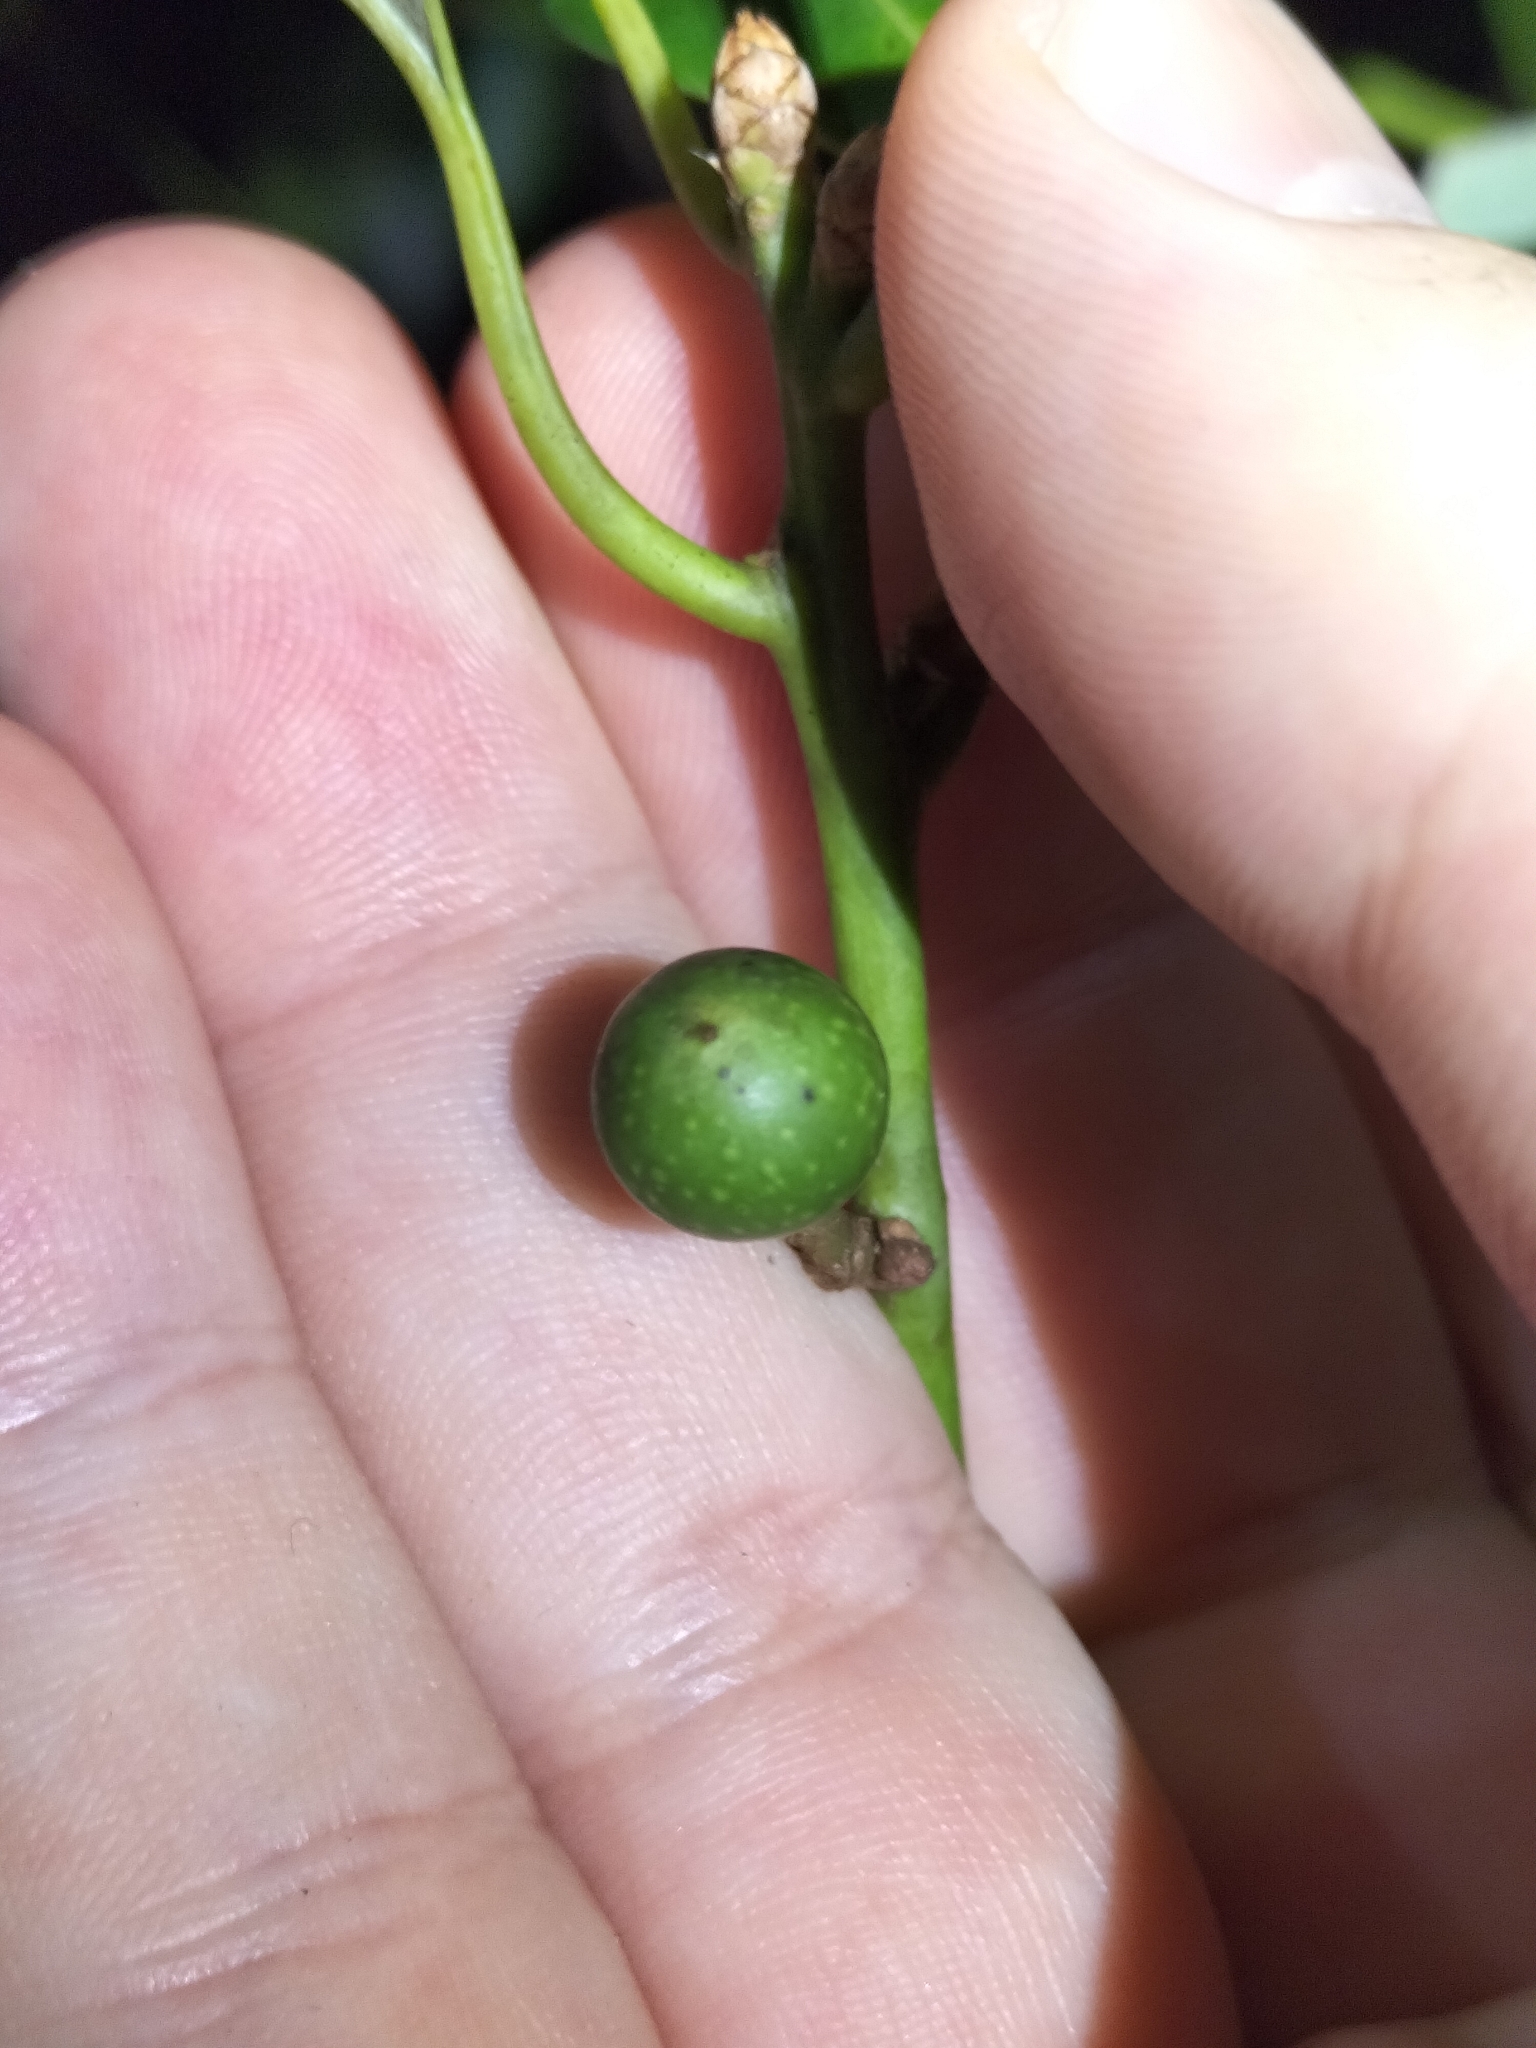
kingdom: Plantae
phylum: Tracheophyta
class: Magnoliopsida
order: Laurales
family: Lauraceae
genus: Neolitsea
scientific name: Neolitsea brassii
